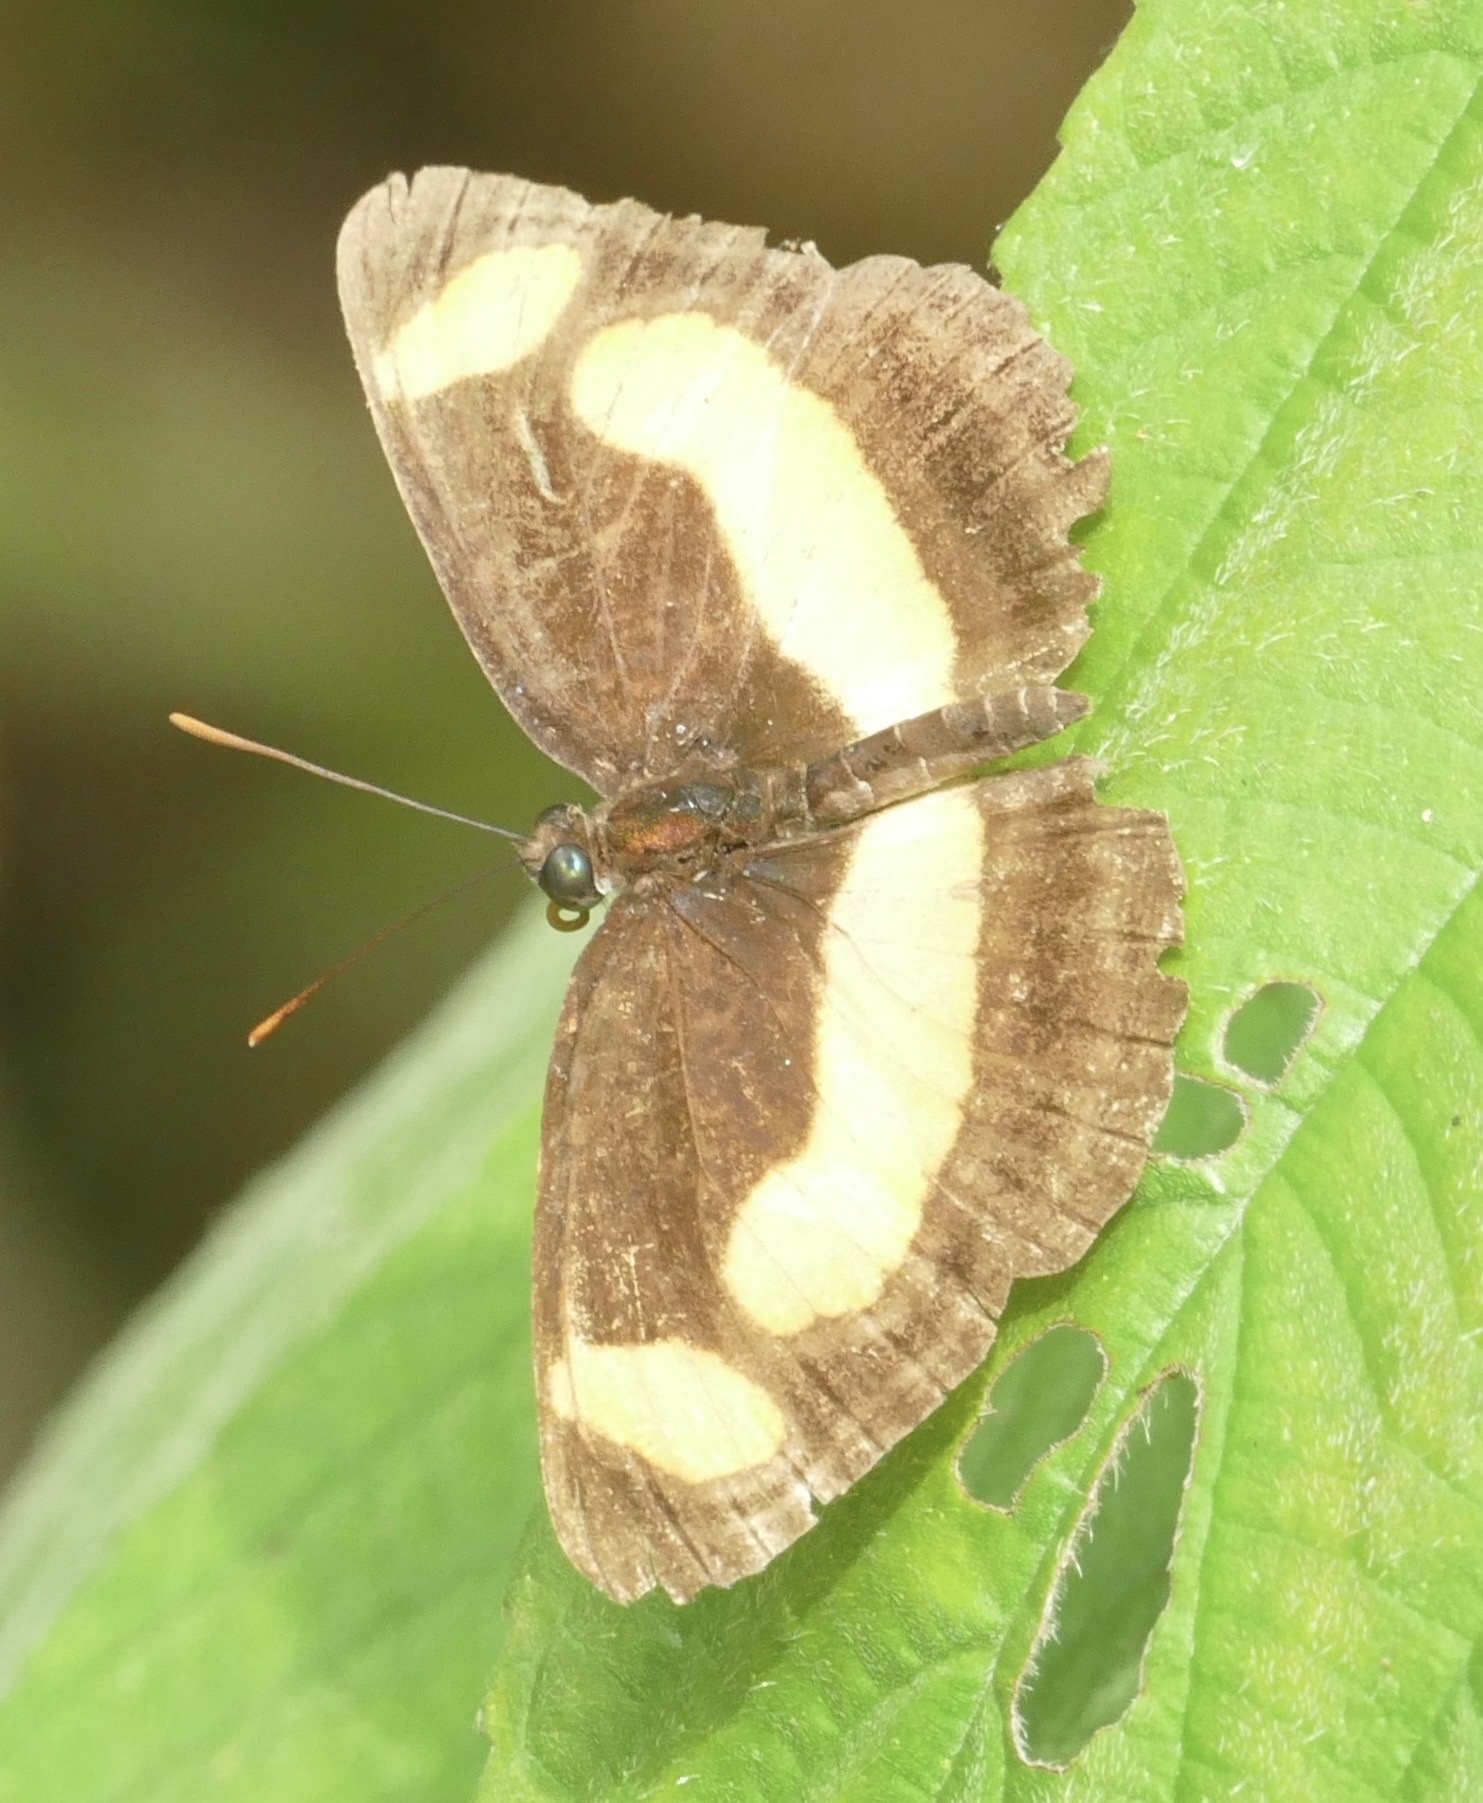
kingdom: Animalia
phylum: Arthropoda
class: Insecta
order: Lepidoptera
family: Nymphalidae
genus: Pantoporia
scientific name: Pantoporia consimilis
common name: Orange plane
